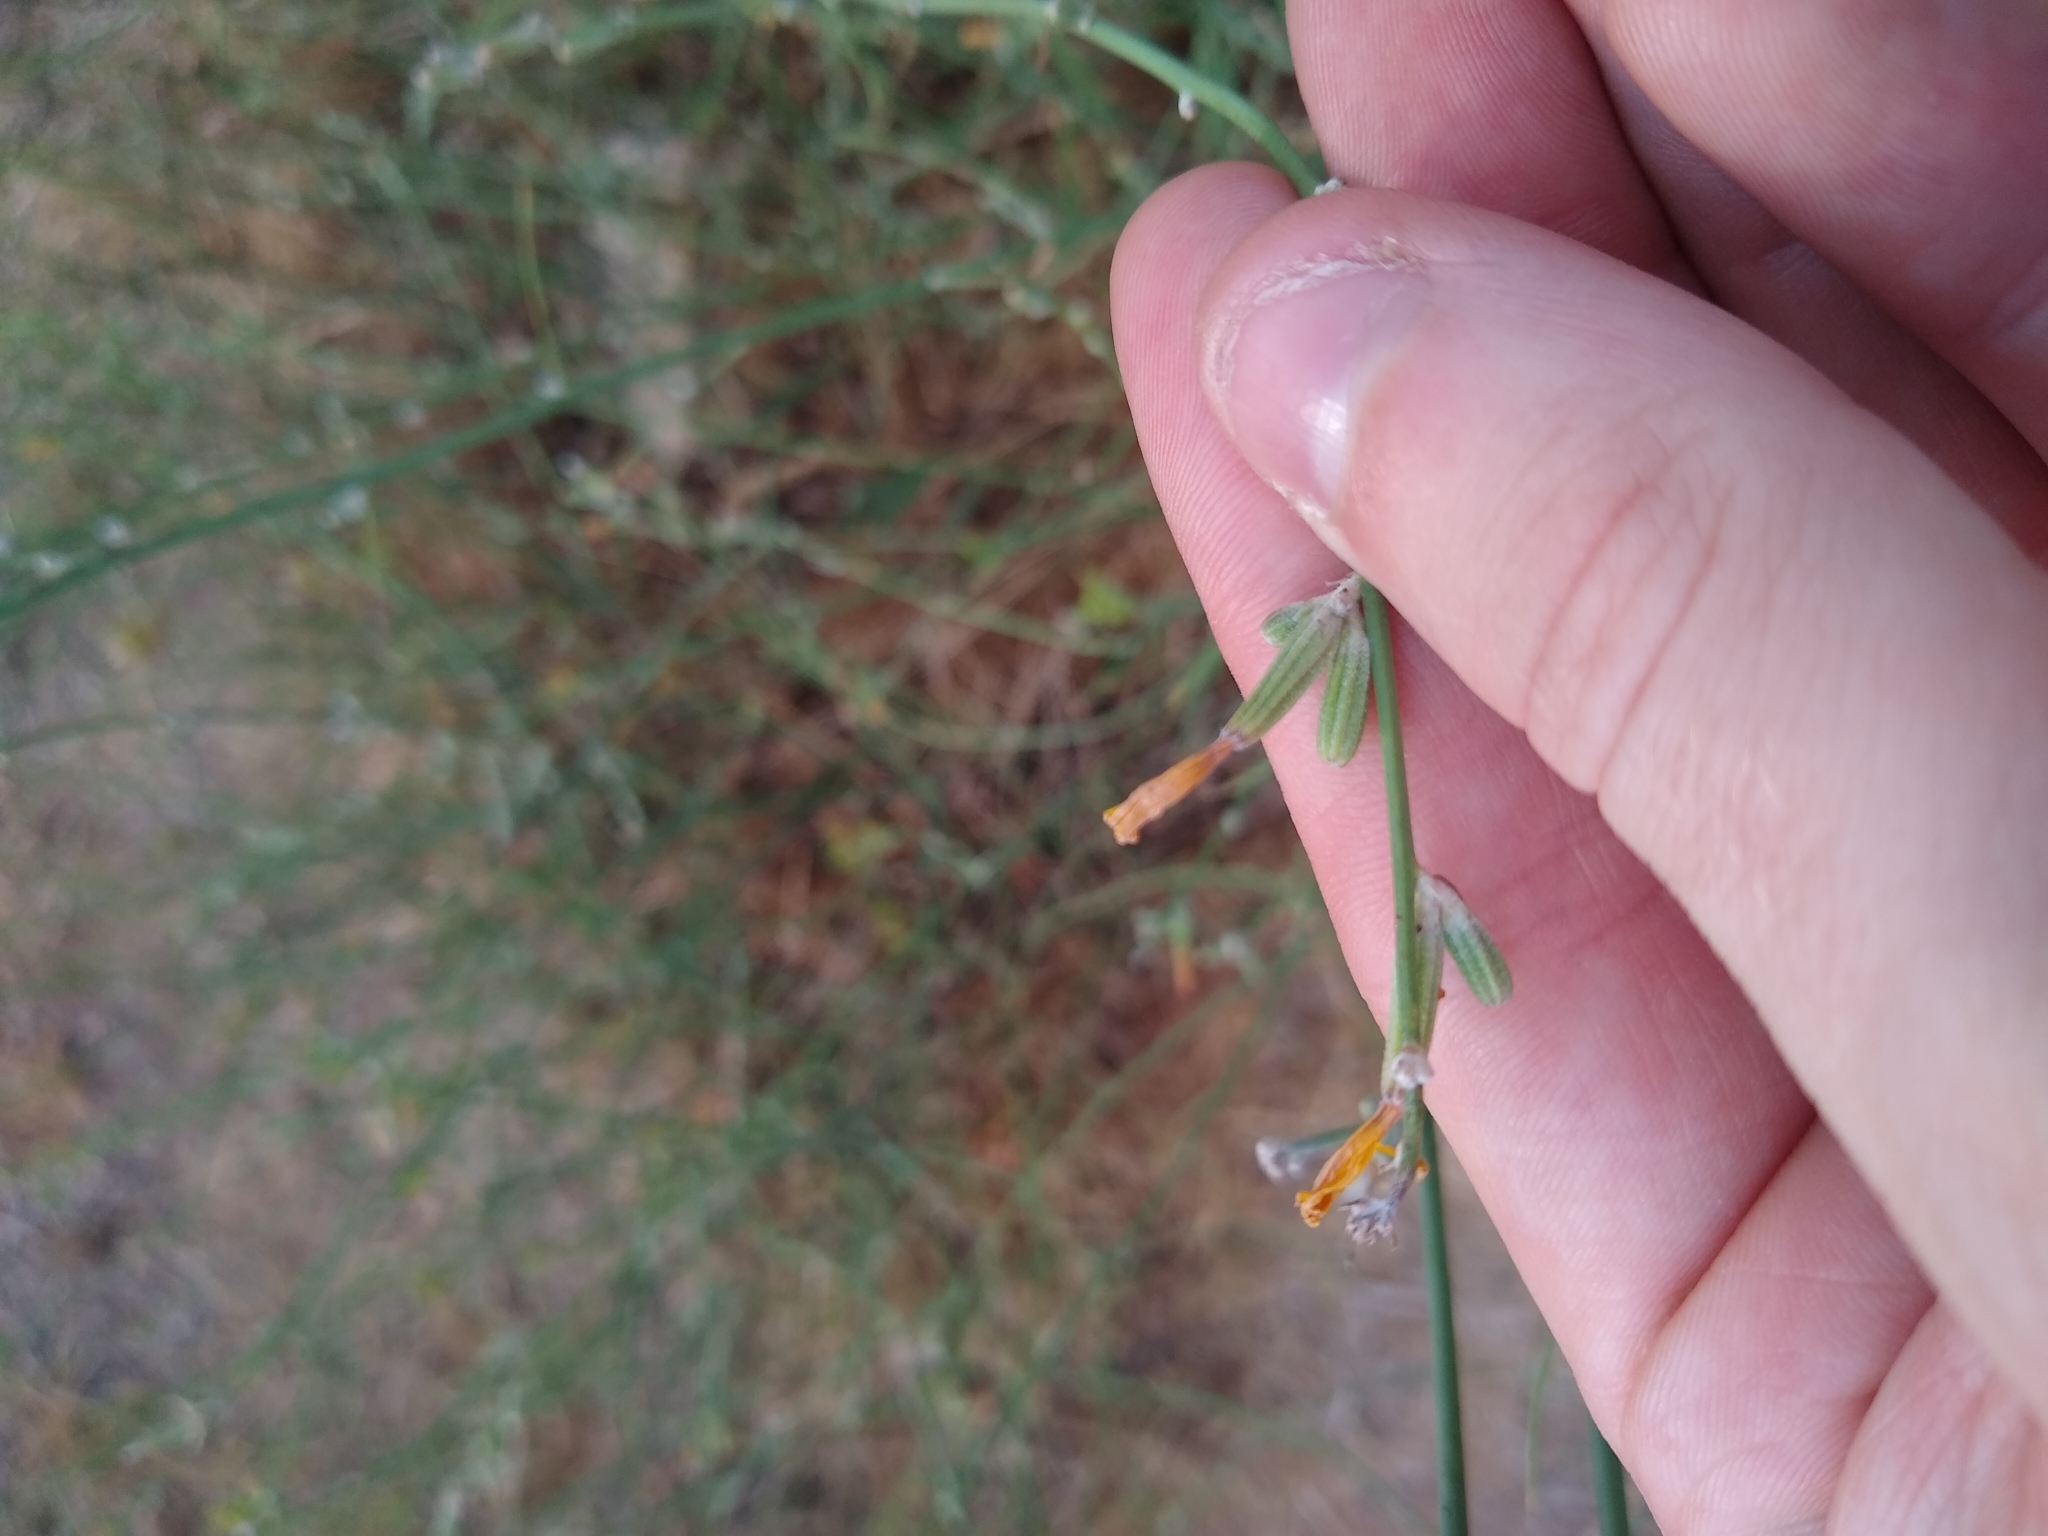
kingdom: Plantae
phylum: Tracheophyta
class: Magnoliopsida
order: Asterales
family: Asteraceae
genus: Chondrilla
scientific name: Chondrilla juncea
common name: Skeleton weed
